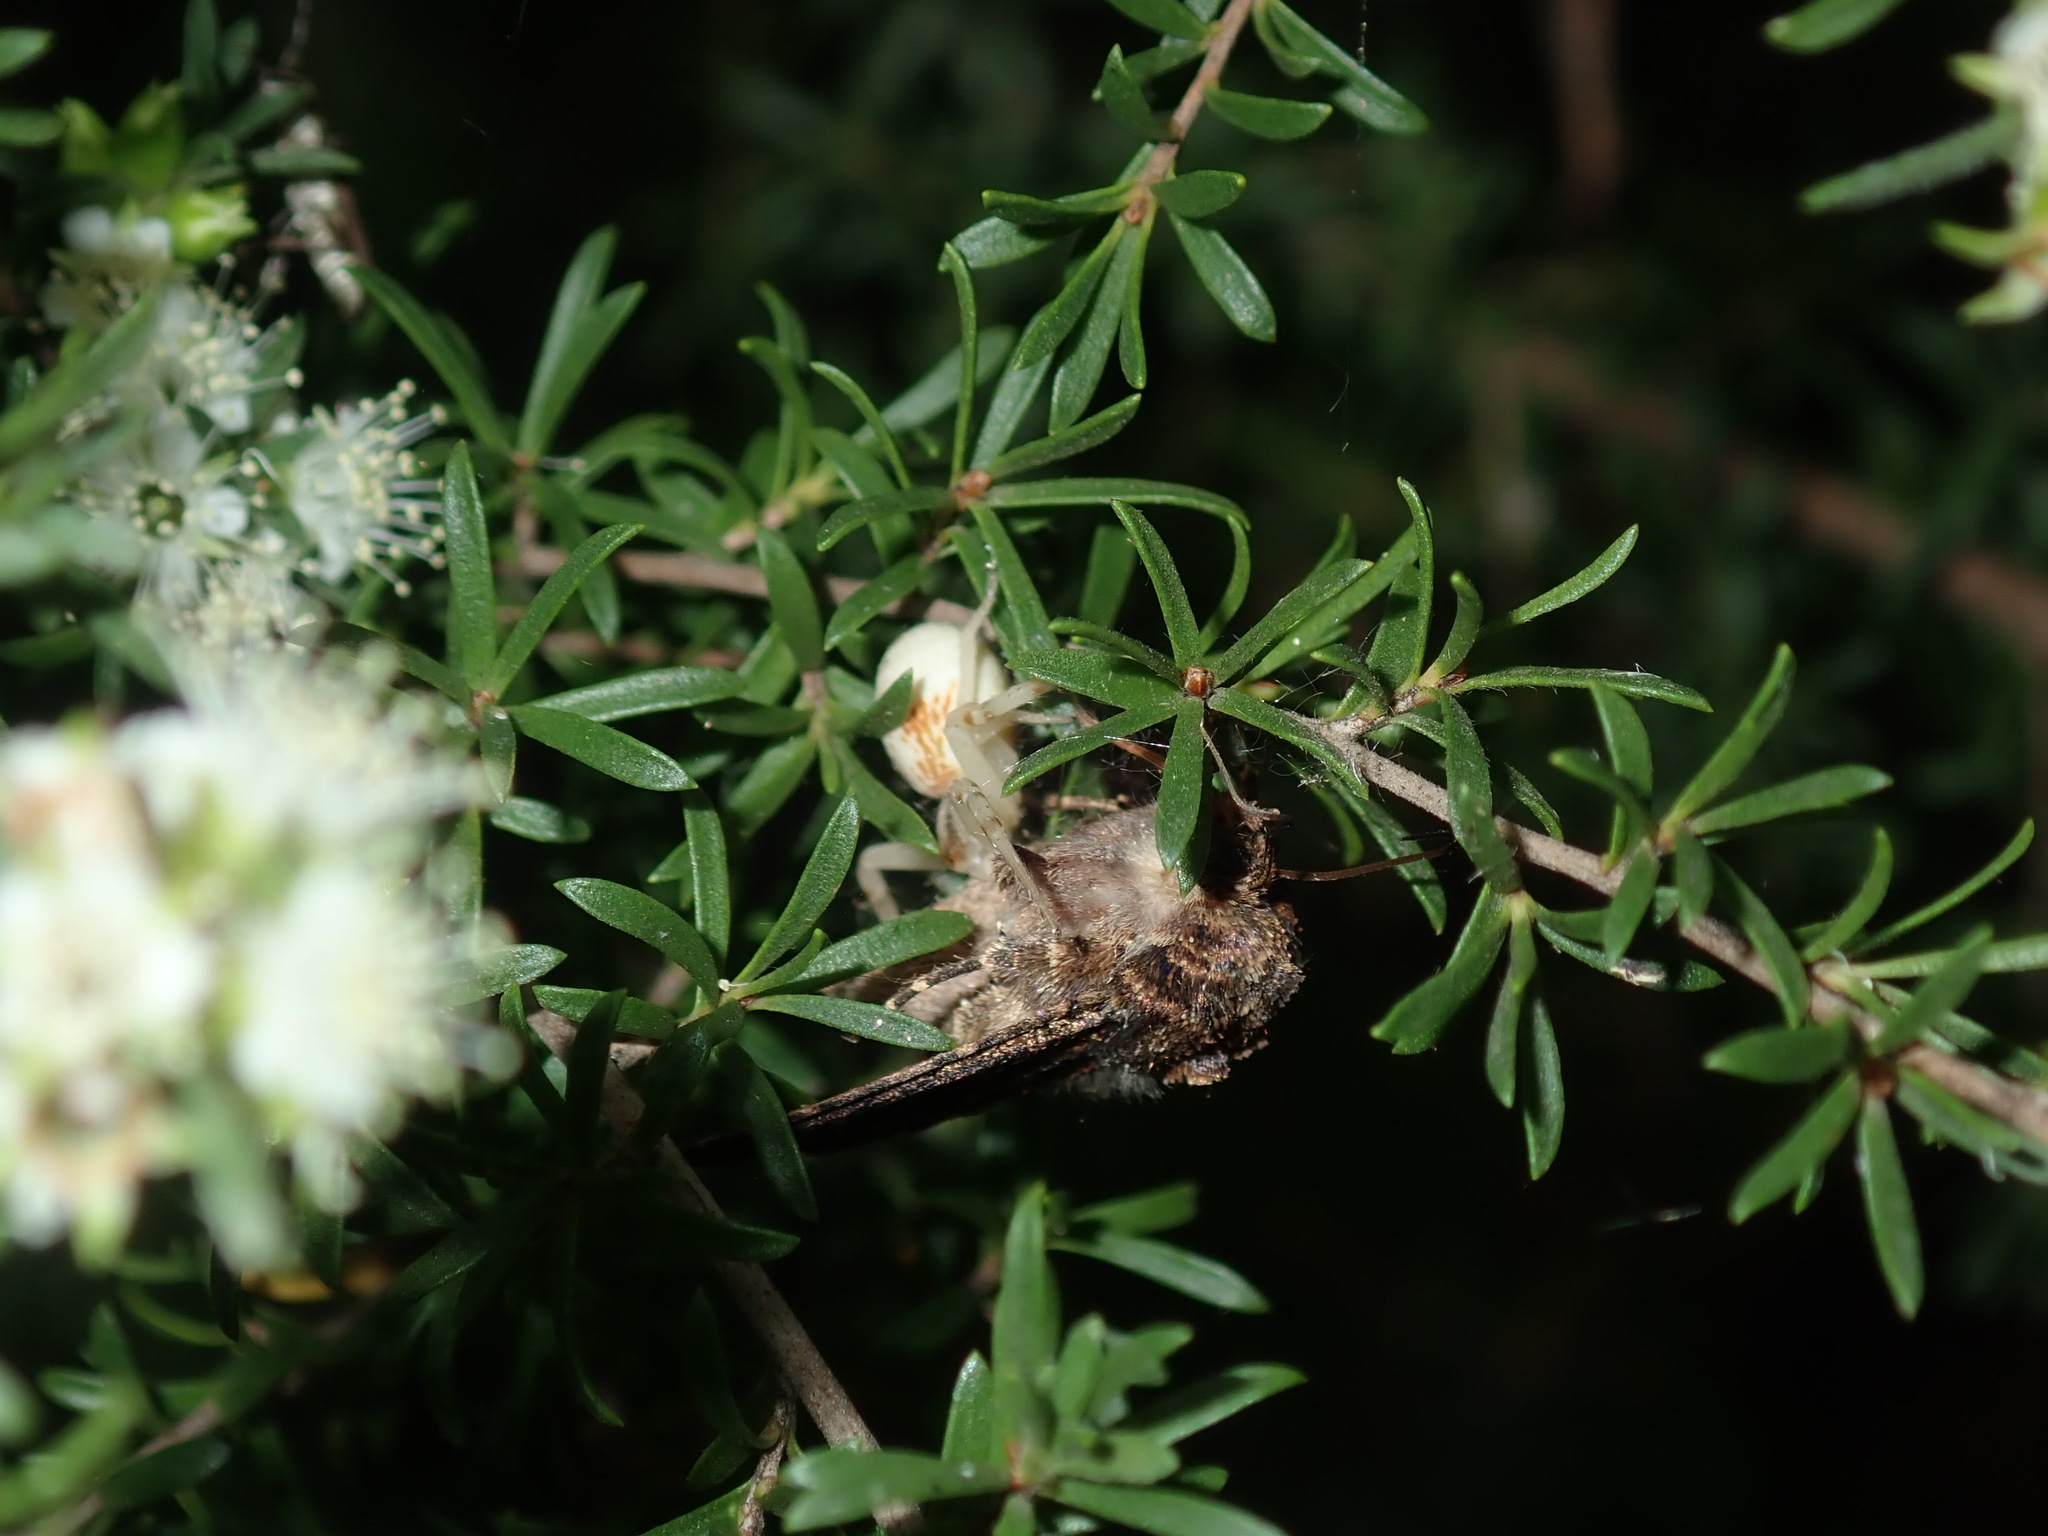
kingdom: Animalia
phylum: Arthropoda
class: Arachnida
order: Araneae
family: Thomisidae
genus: Zygometis
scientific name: Zygometis xanthogaster
